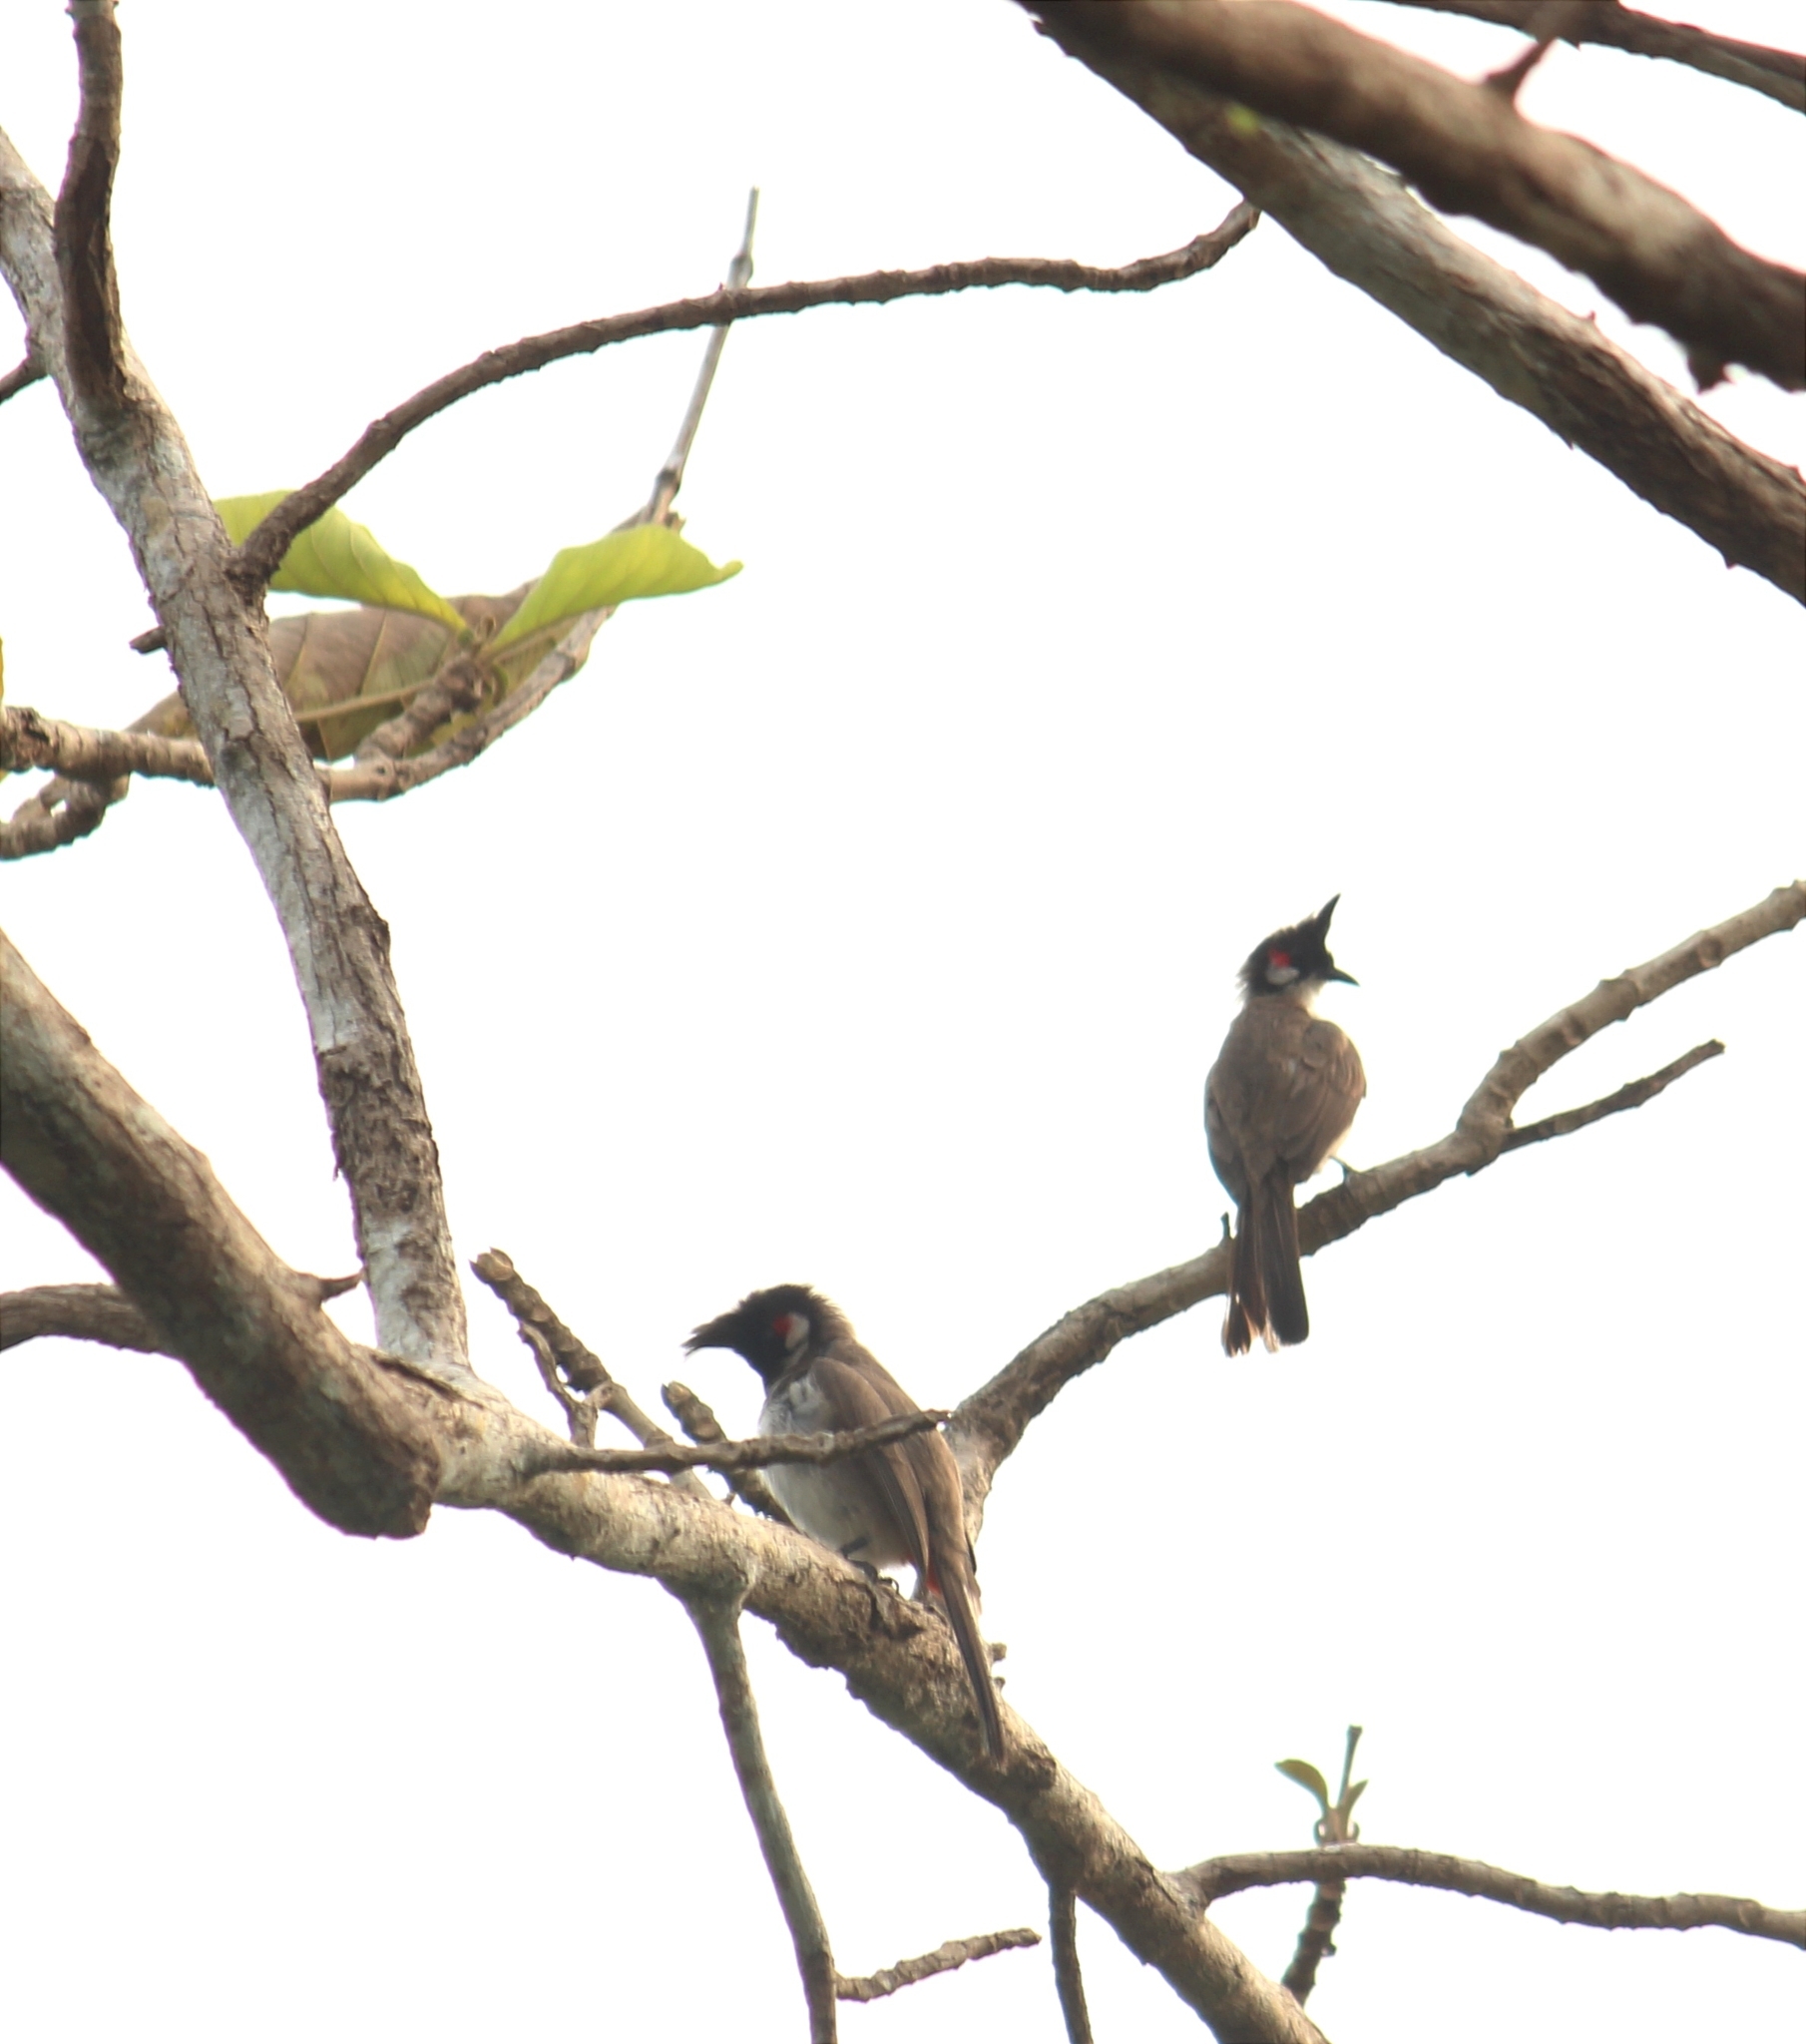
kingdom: Animalia
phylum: Chordata
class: Aves
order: Passeriformes
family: Pycnonotidae
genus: Pycnonotus
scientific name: Pycnonotus jocosus
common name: Red-whiskered bulbul
